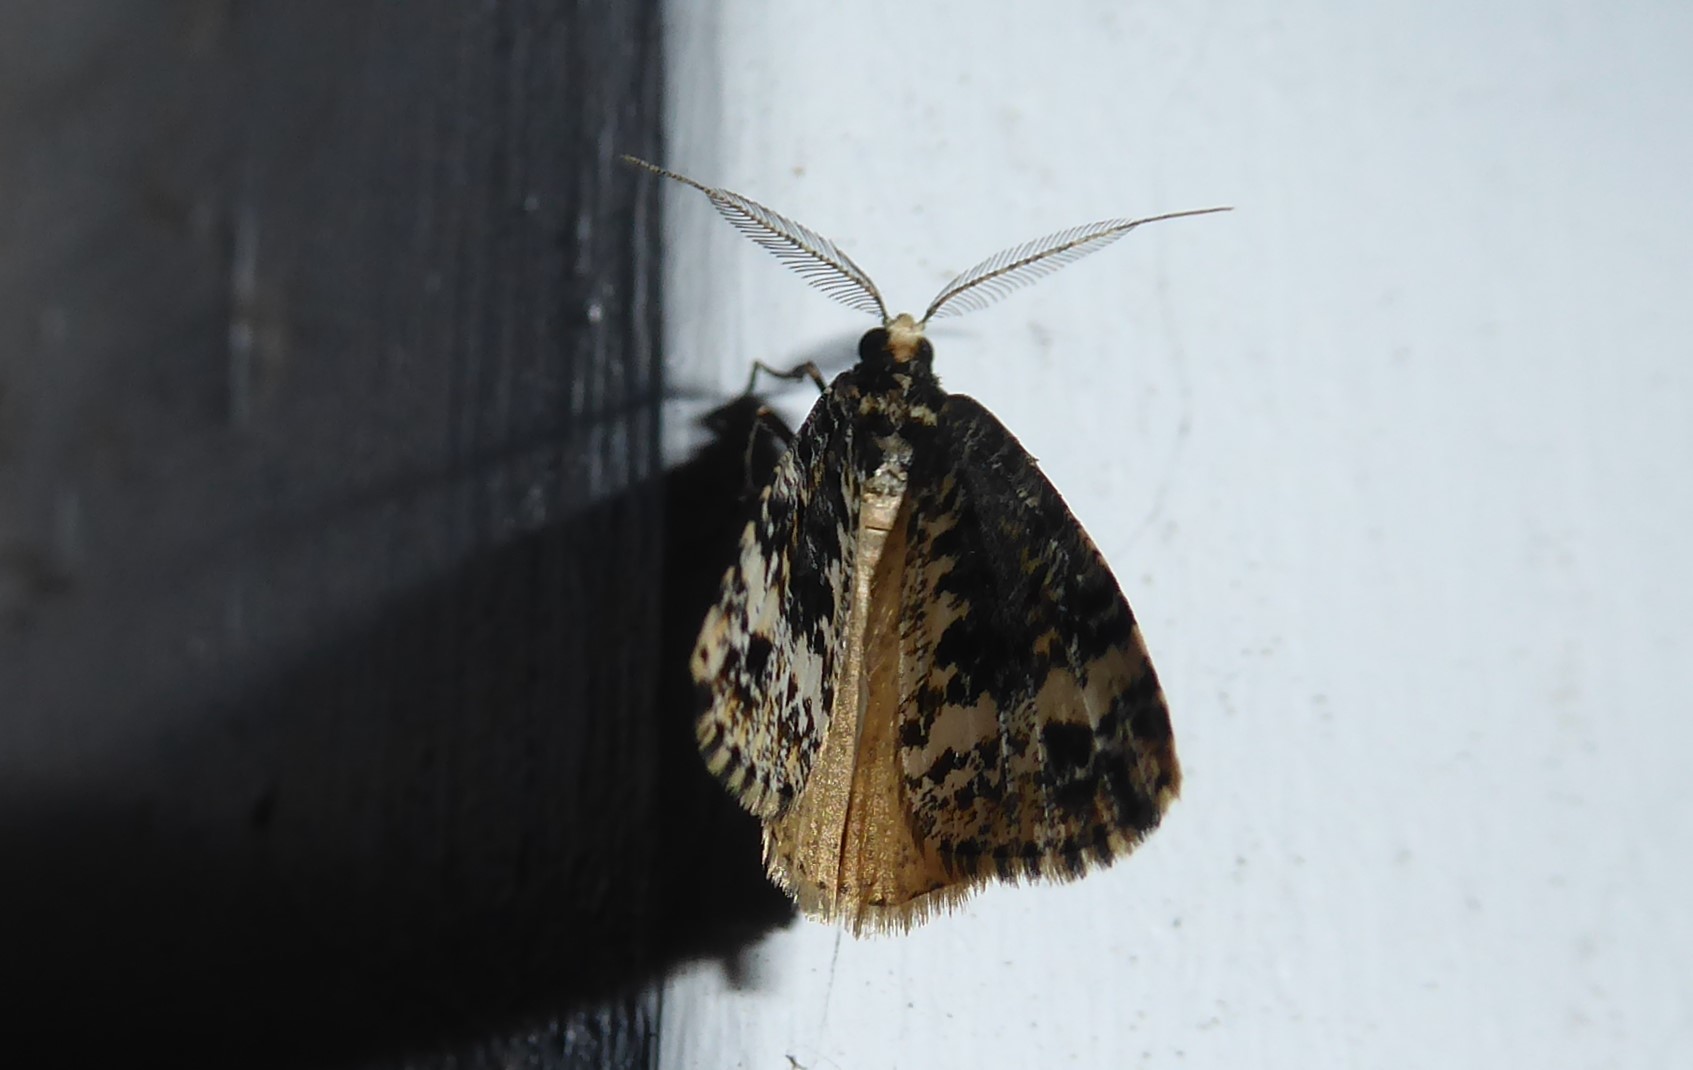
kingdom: Animalia
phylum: Arthropoda
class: Insecta
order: Lepidoptera
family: Geometridae
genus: Pseudocoremia
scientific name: Pseudocoremia leucelaea
